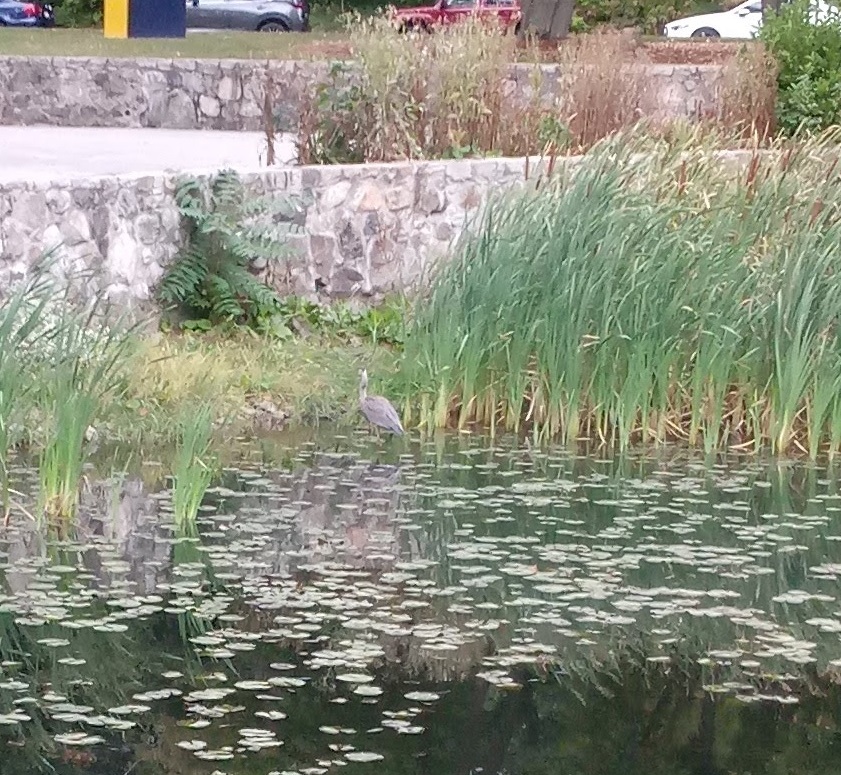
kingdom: Animalia
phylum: Chordata
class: Aves
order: Pelecaniformes
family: Ardeidae
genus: Ardea
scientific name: Ardea herodias
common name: Great blue heron
